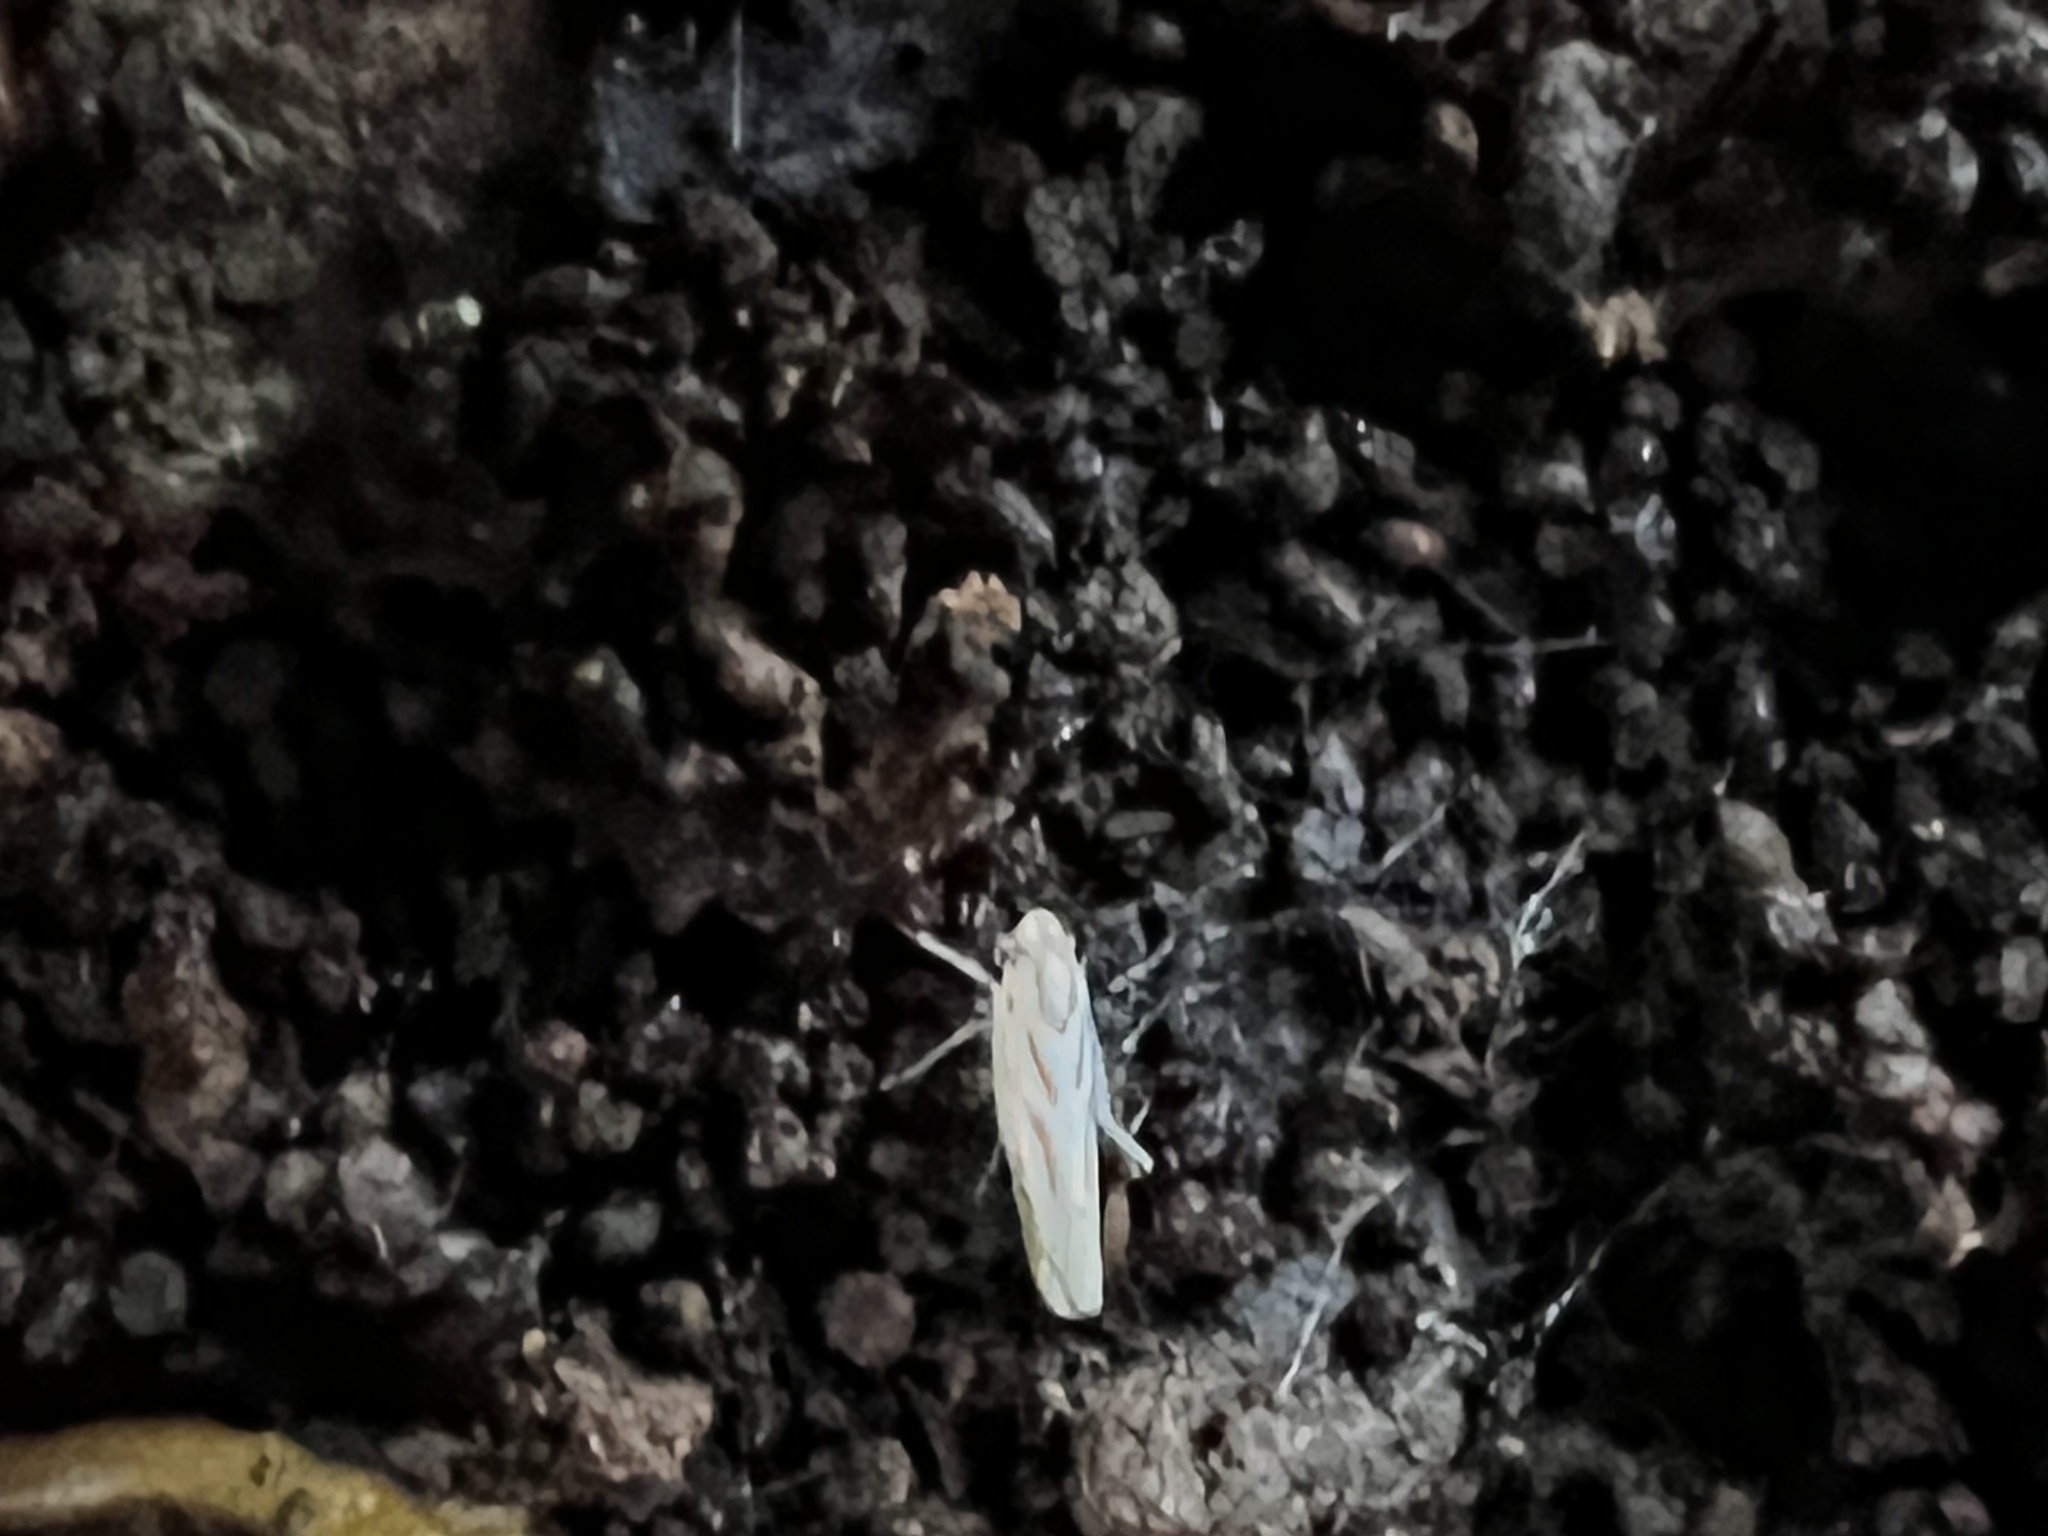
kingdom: Animalia
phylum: Arthropoda
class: Insecta
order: Hemiptera
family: Cicadellidae
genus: Dikrella
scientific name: Dikrella cruentata
